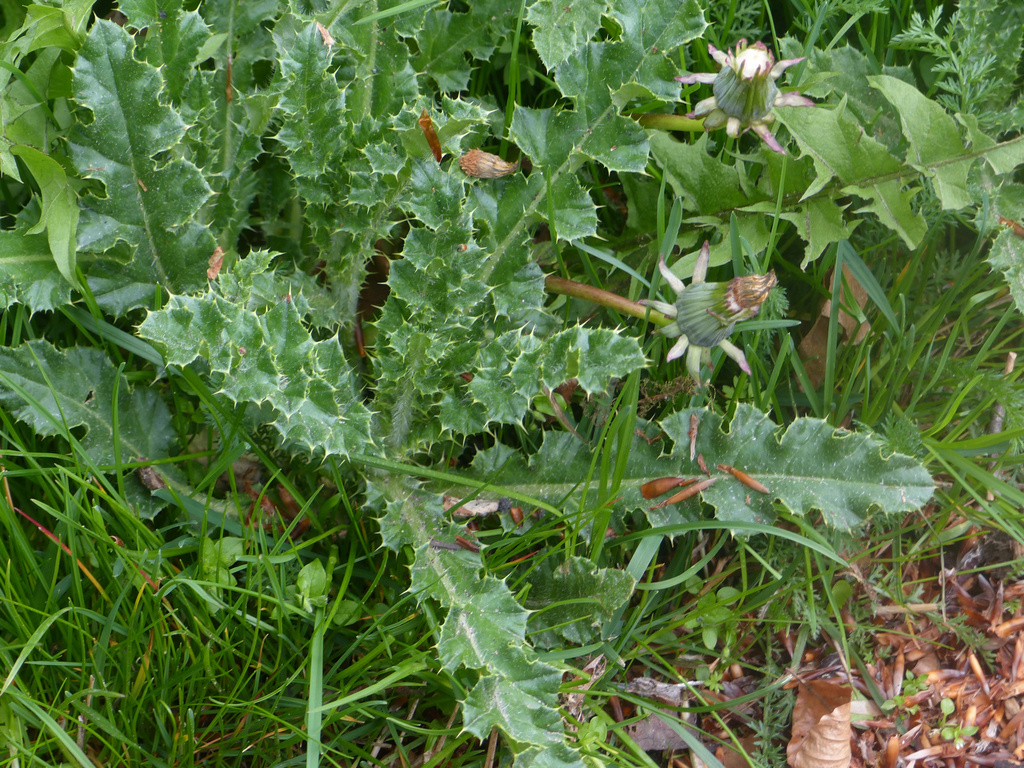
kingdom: Plantae
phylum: Tracheophyta
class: Magnoliopsida
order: Asterales
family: Asteraceae
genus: Cirsium
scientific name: Cirsium arvense
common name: Creeping thistle
